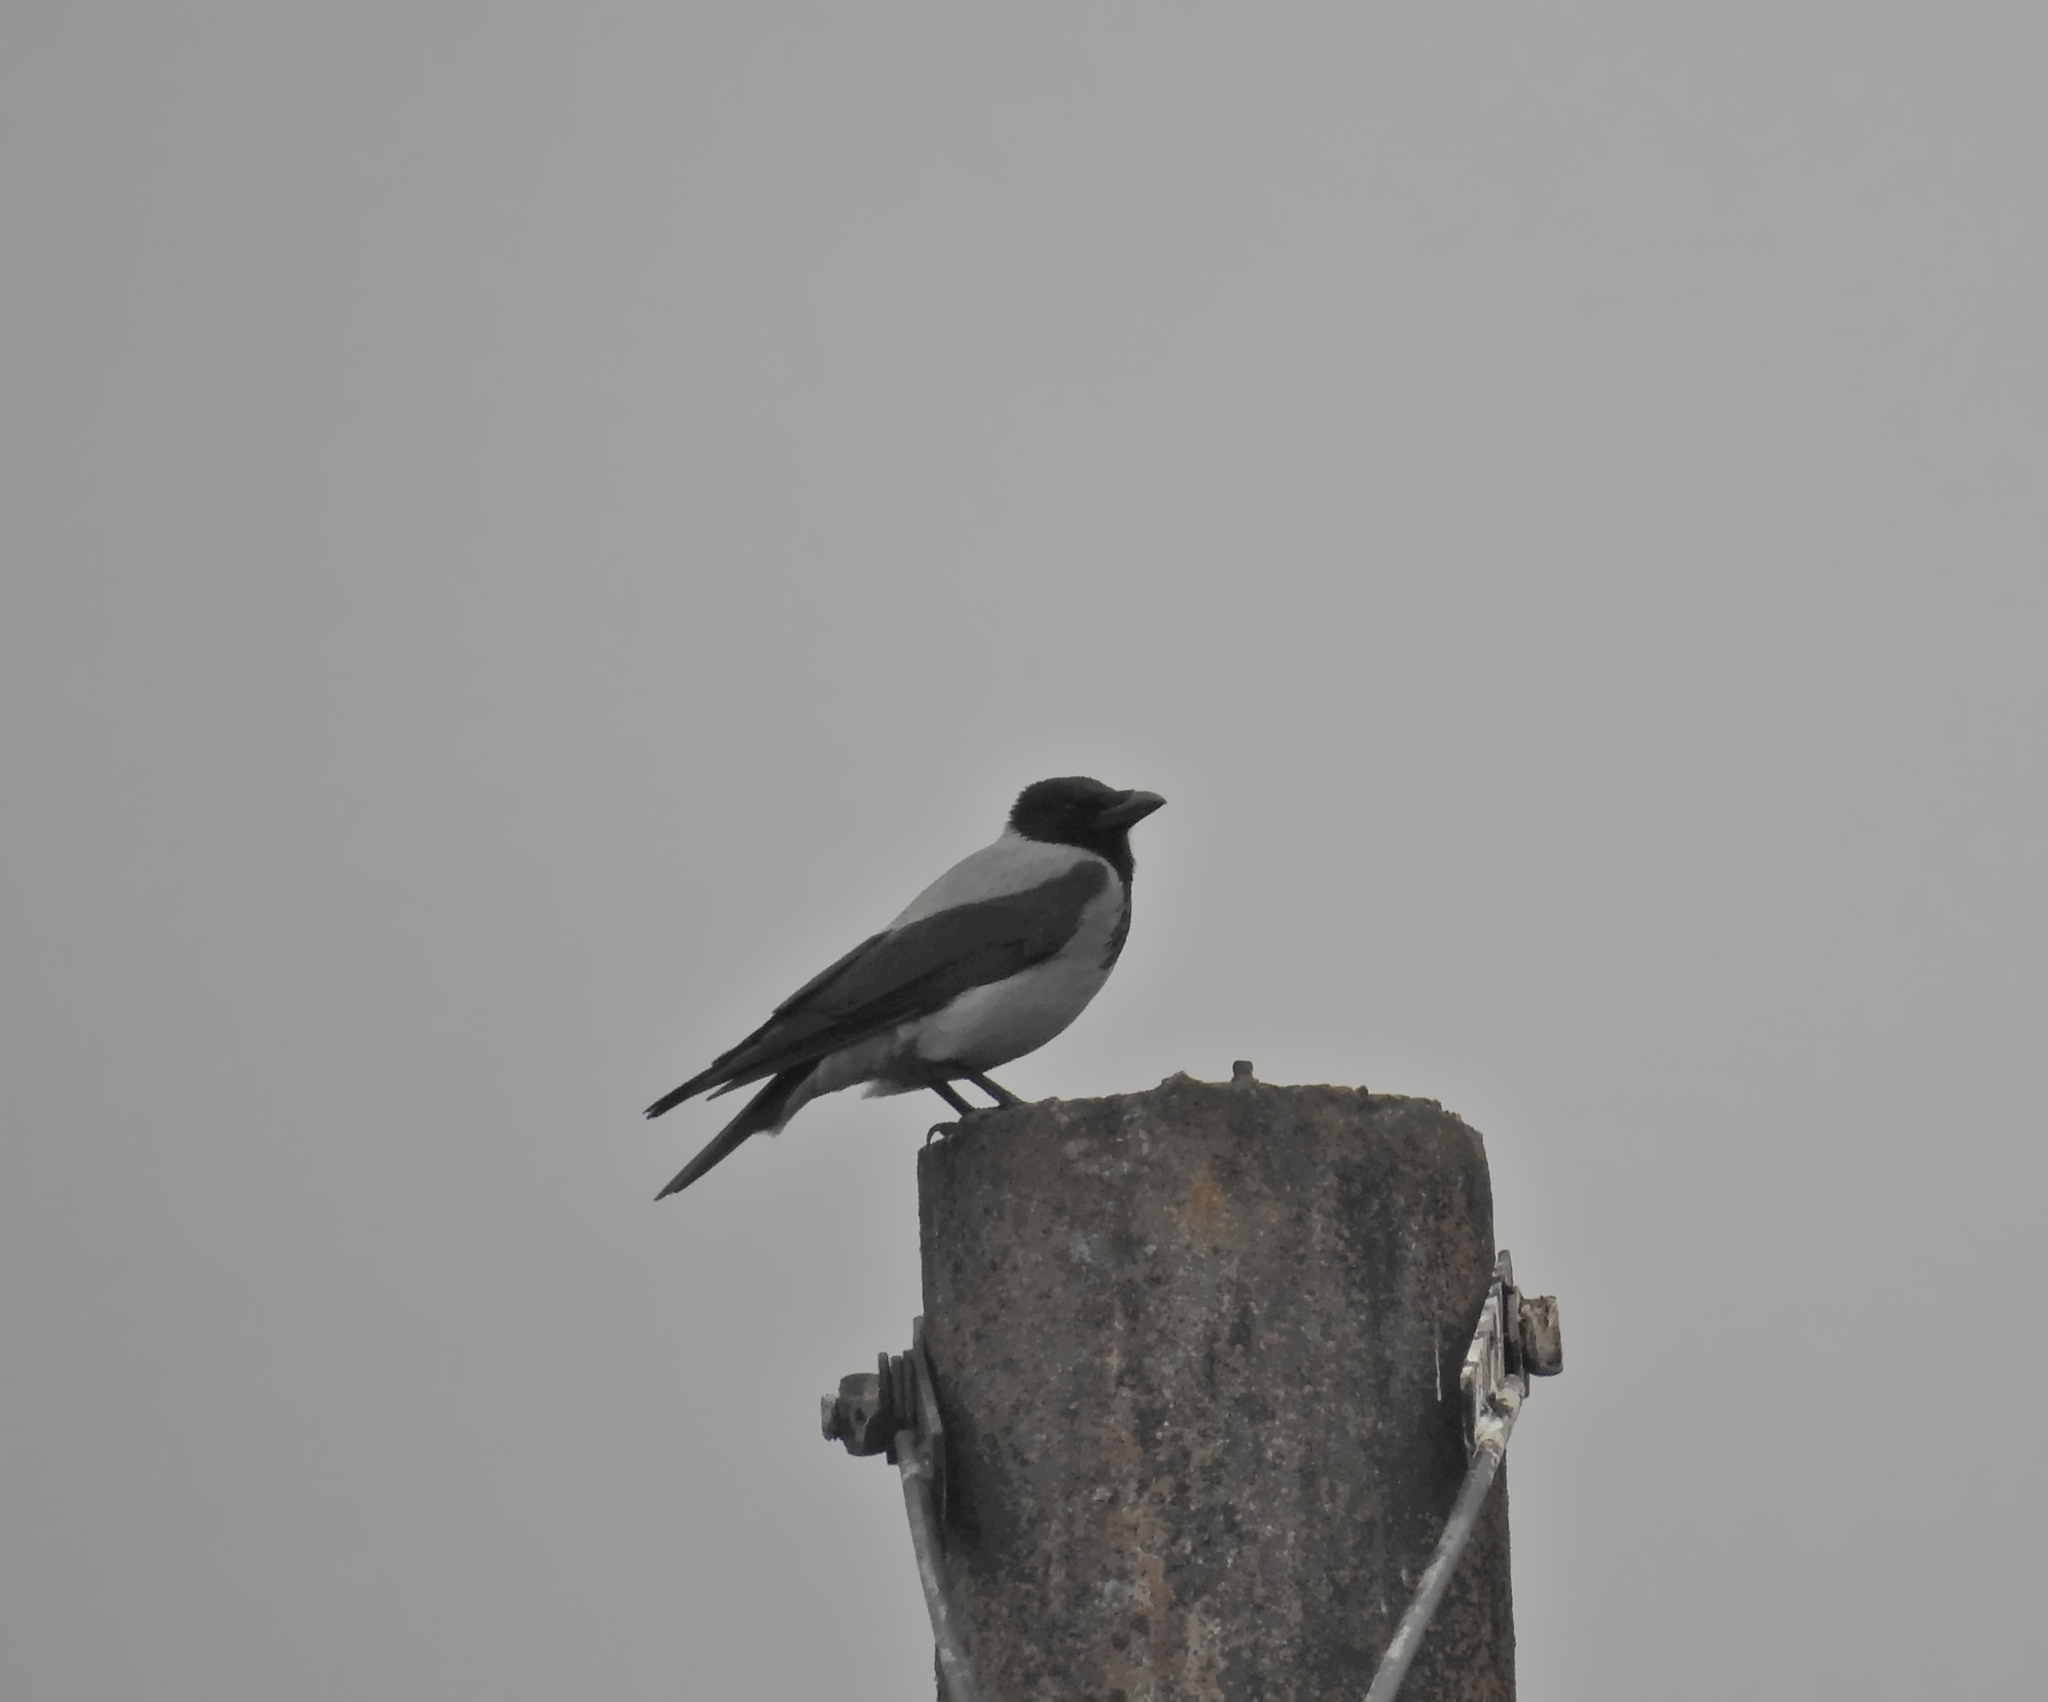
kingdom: Animalia
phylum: Chordata
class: Aves
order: Passeriformes
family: Corvidae
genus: Corvus
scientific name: Corvus cornix
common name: Hooded crow
